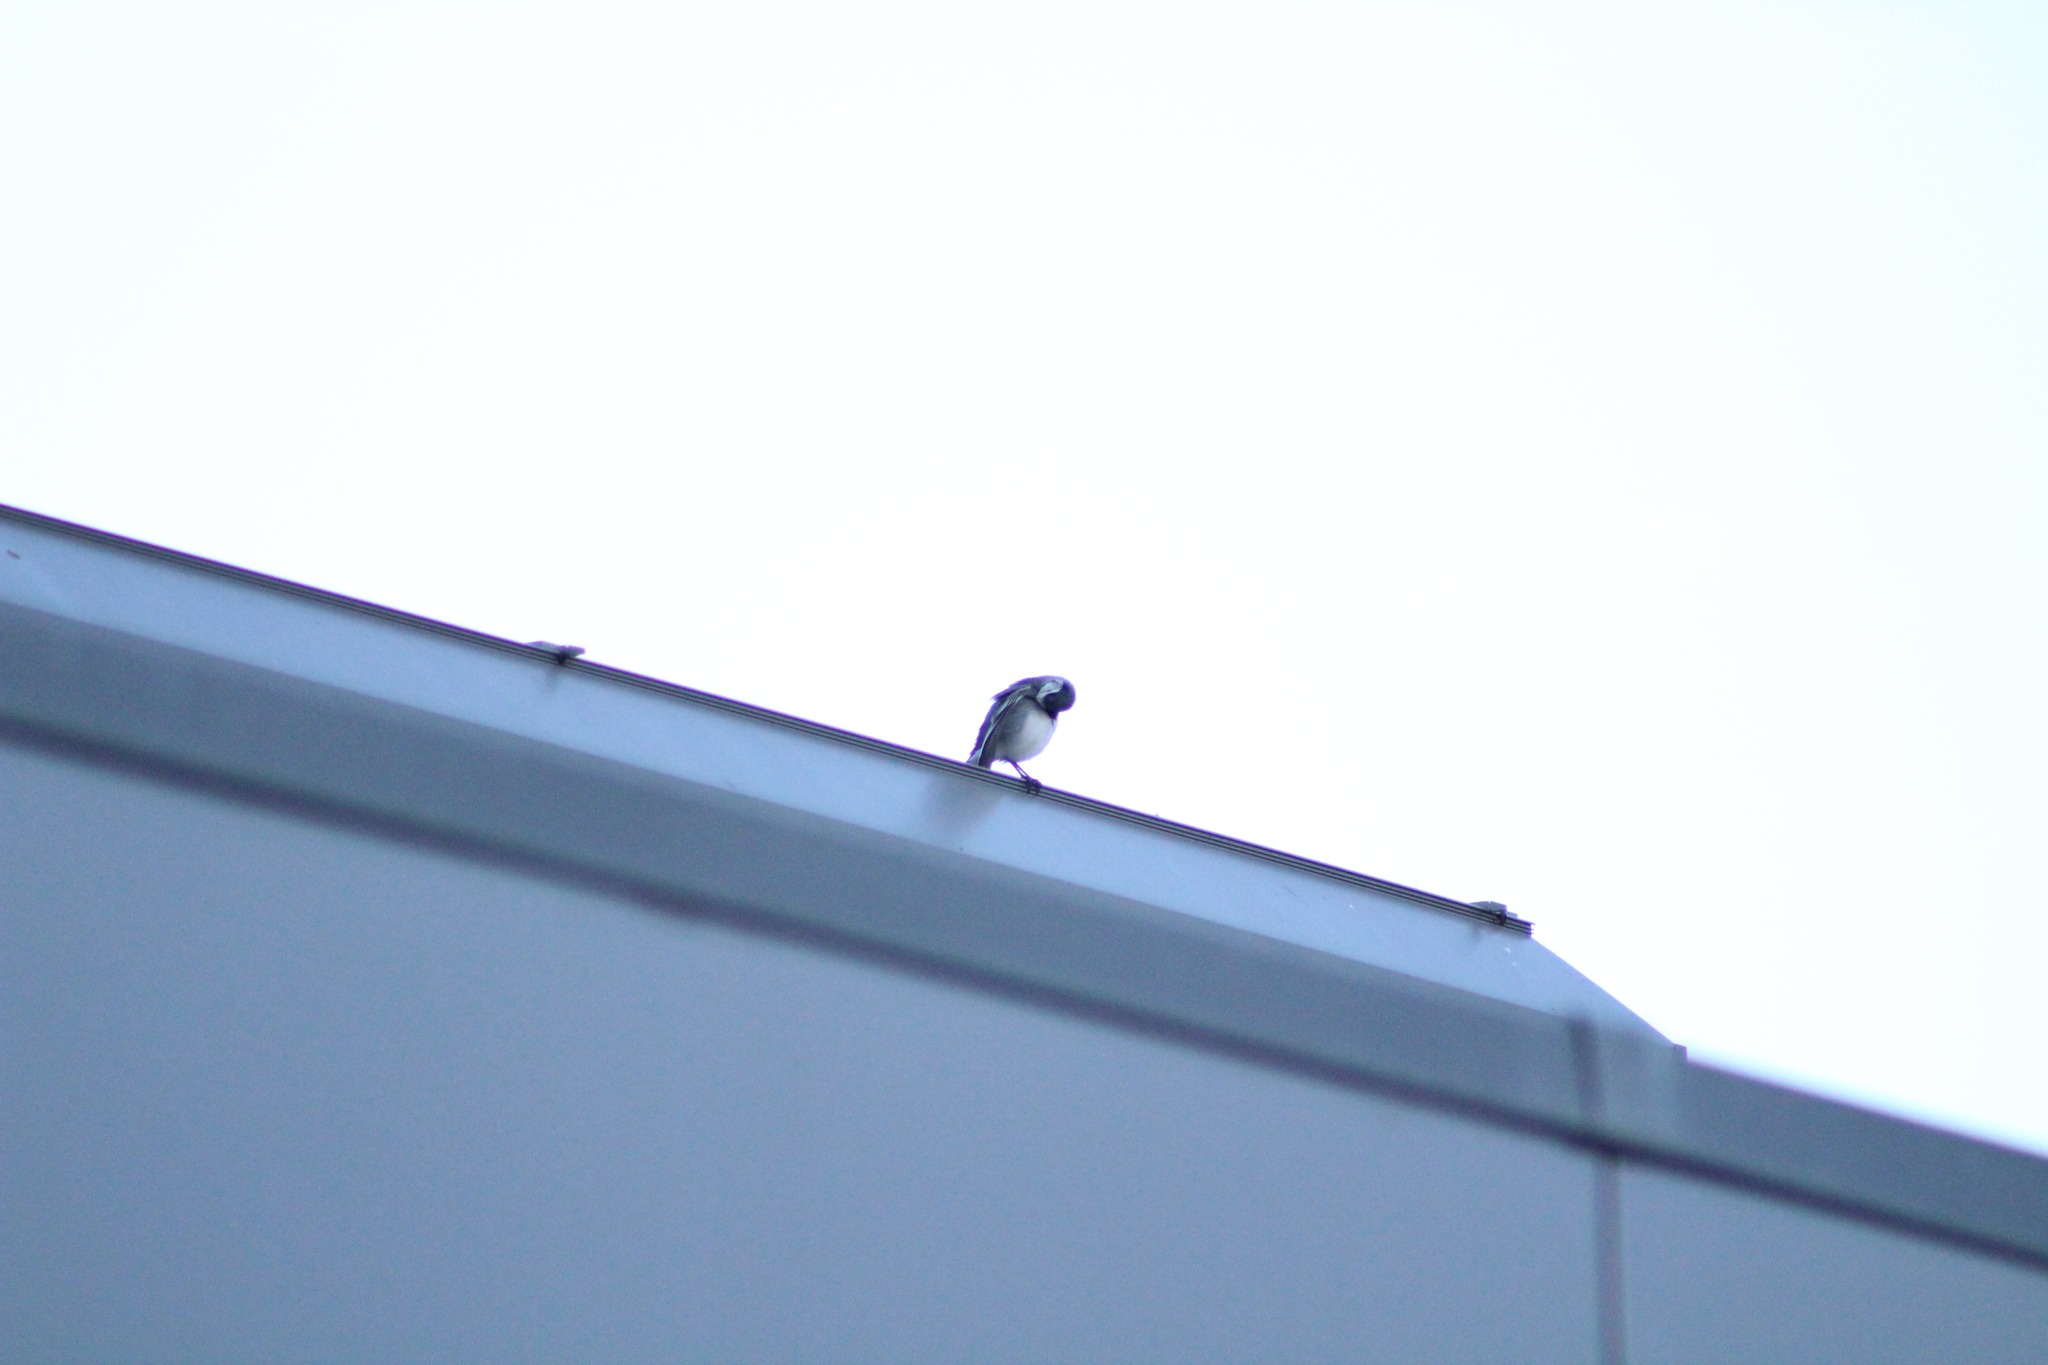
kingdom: Animalia
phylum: Chordata
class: Aves
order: Passeriformes
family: Motacillidae
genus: Motacilla
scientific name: Motacilla alba
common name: White wagtail
